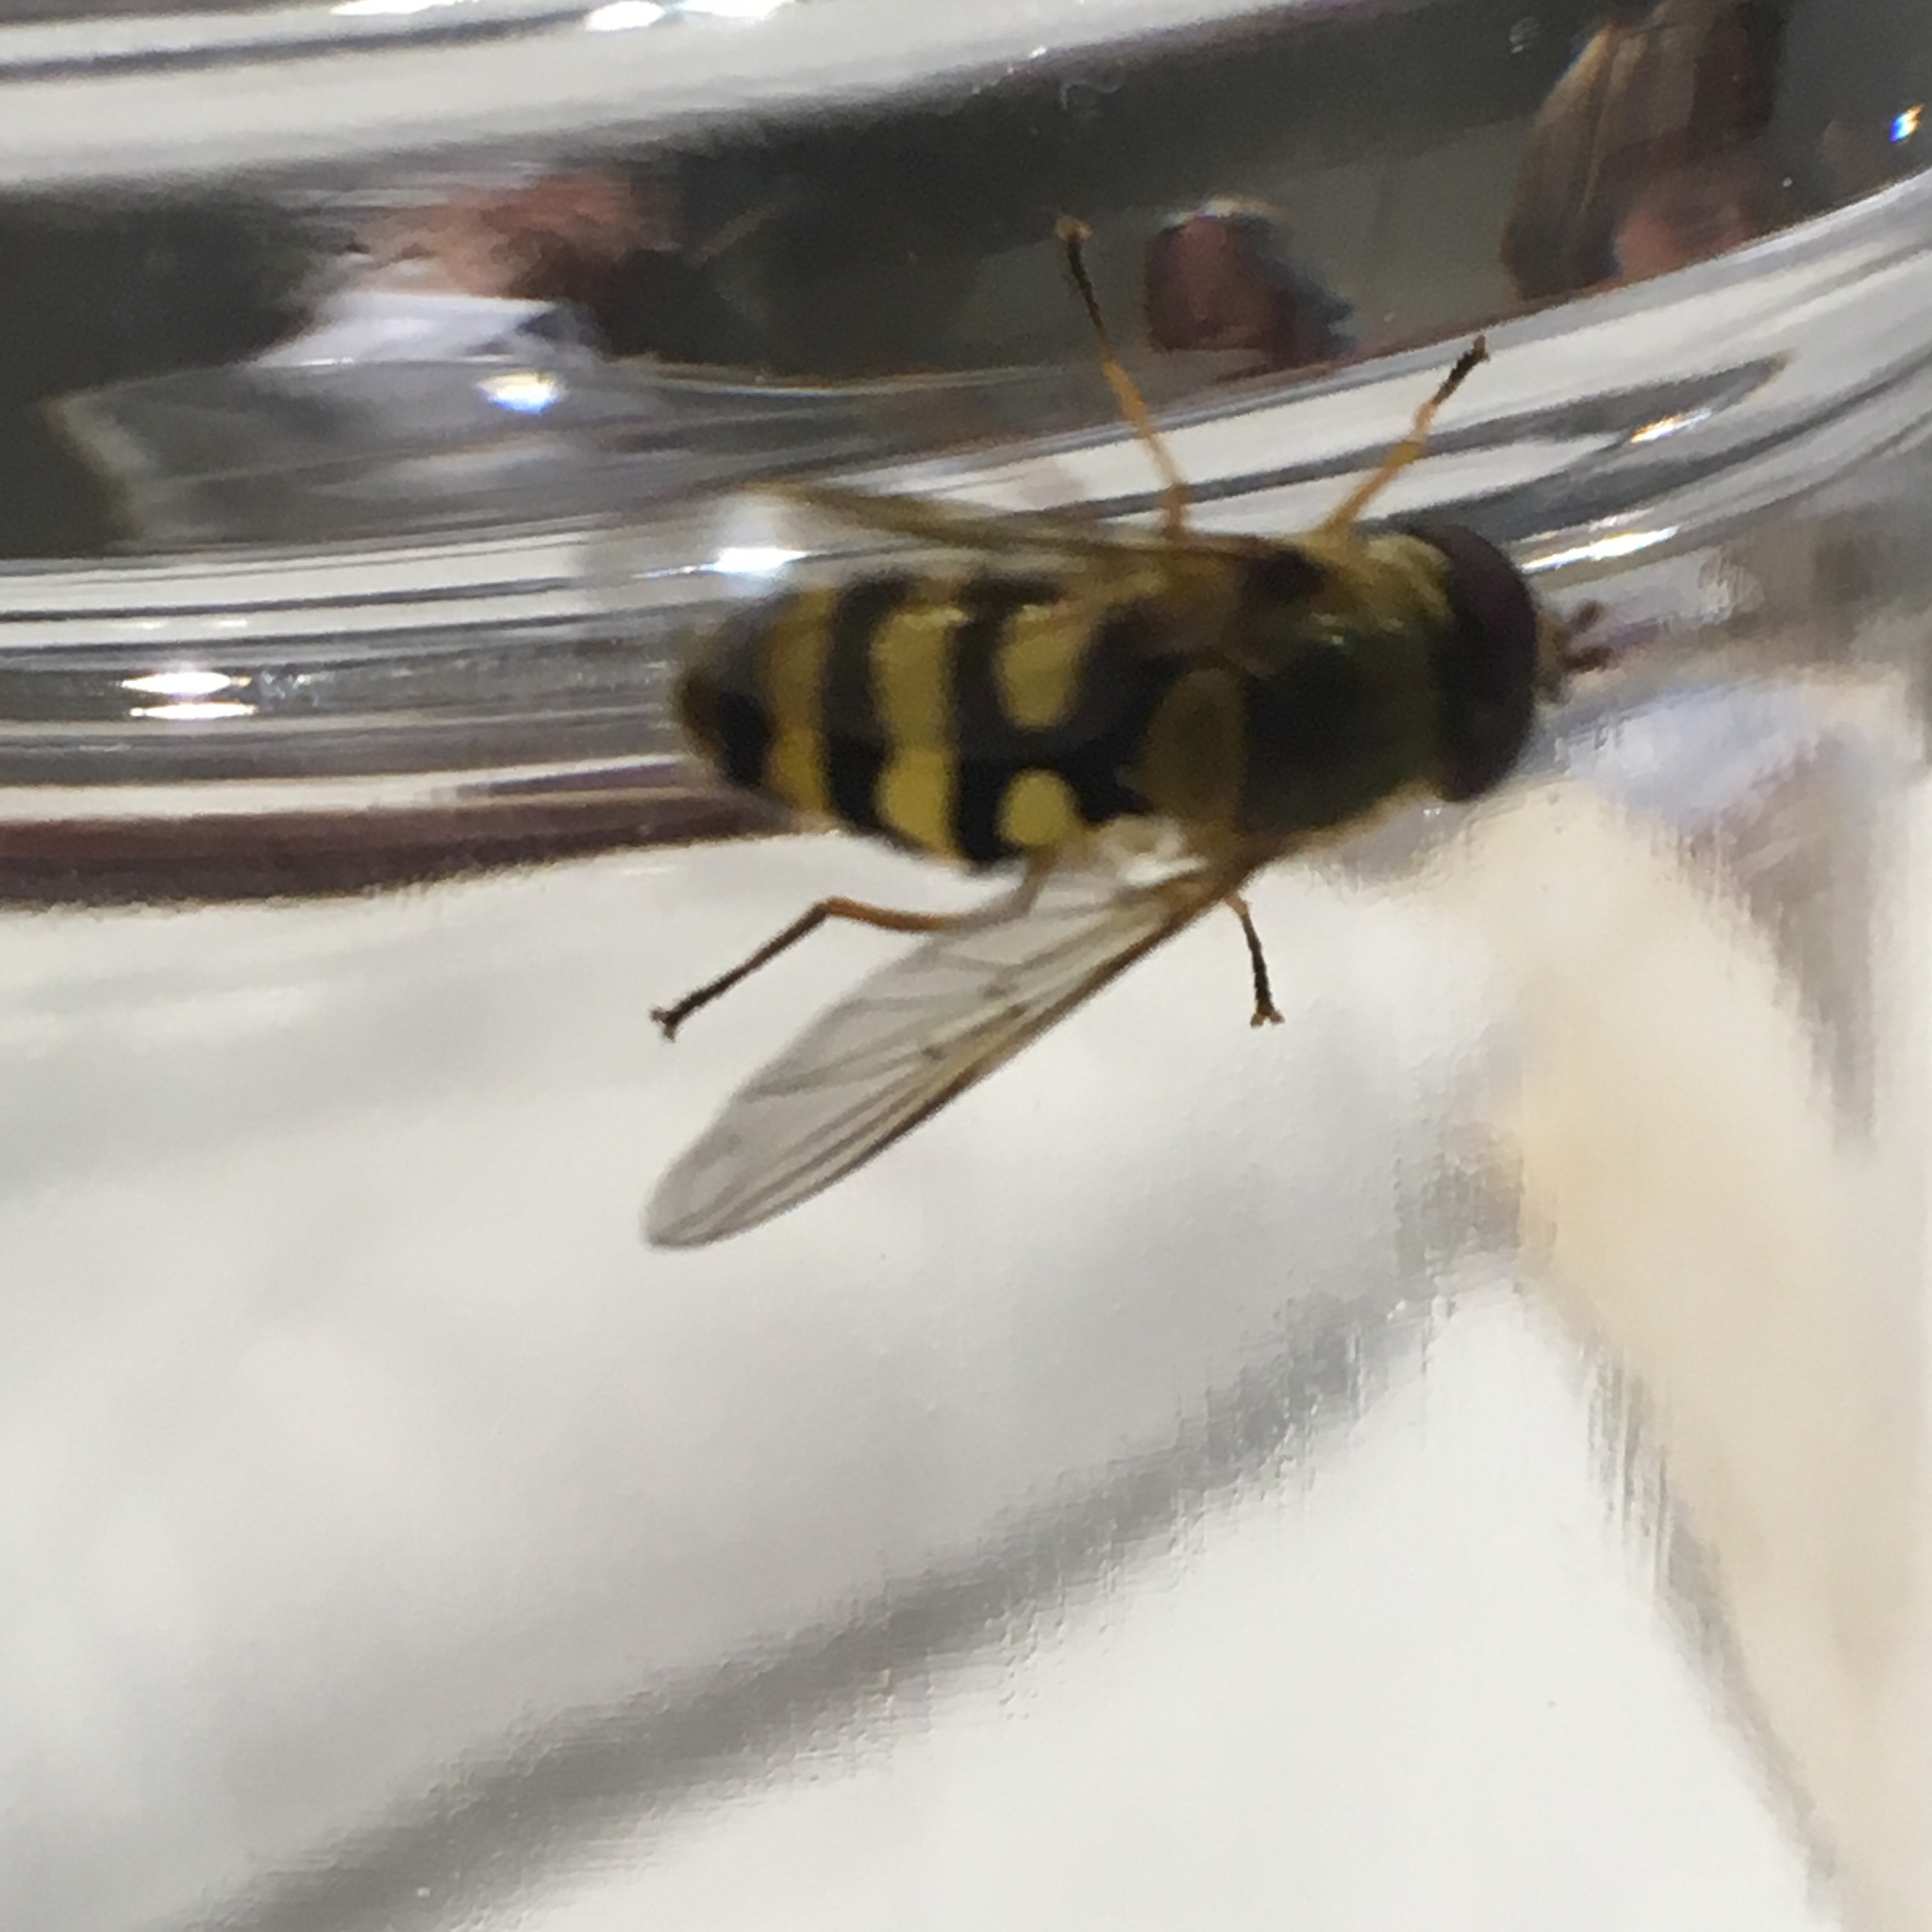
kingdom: Animalia
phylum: Arthropoda
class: Insecta
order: Diptera
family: Syrphidae
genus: Syrphus
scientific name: Syrphus
